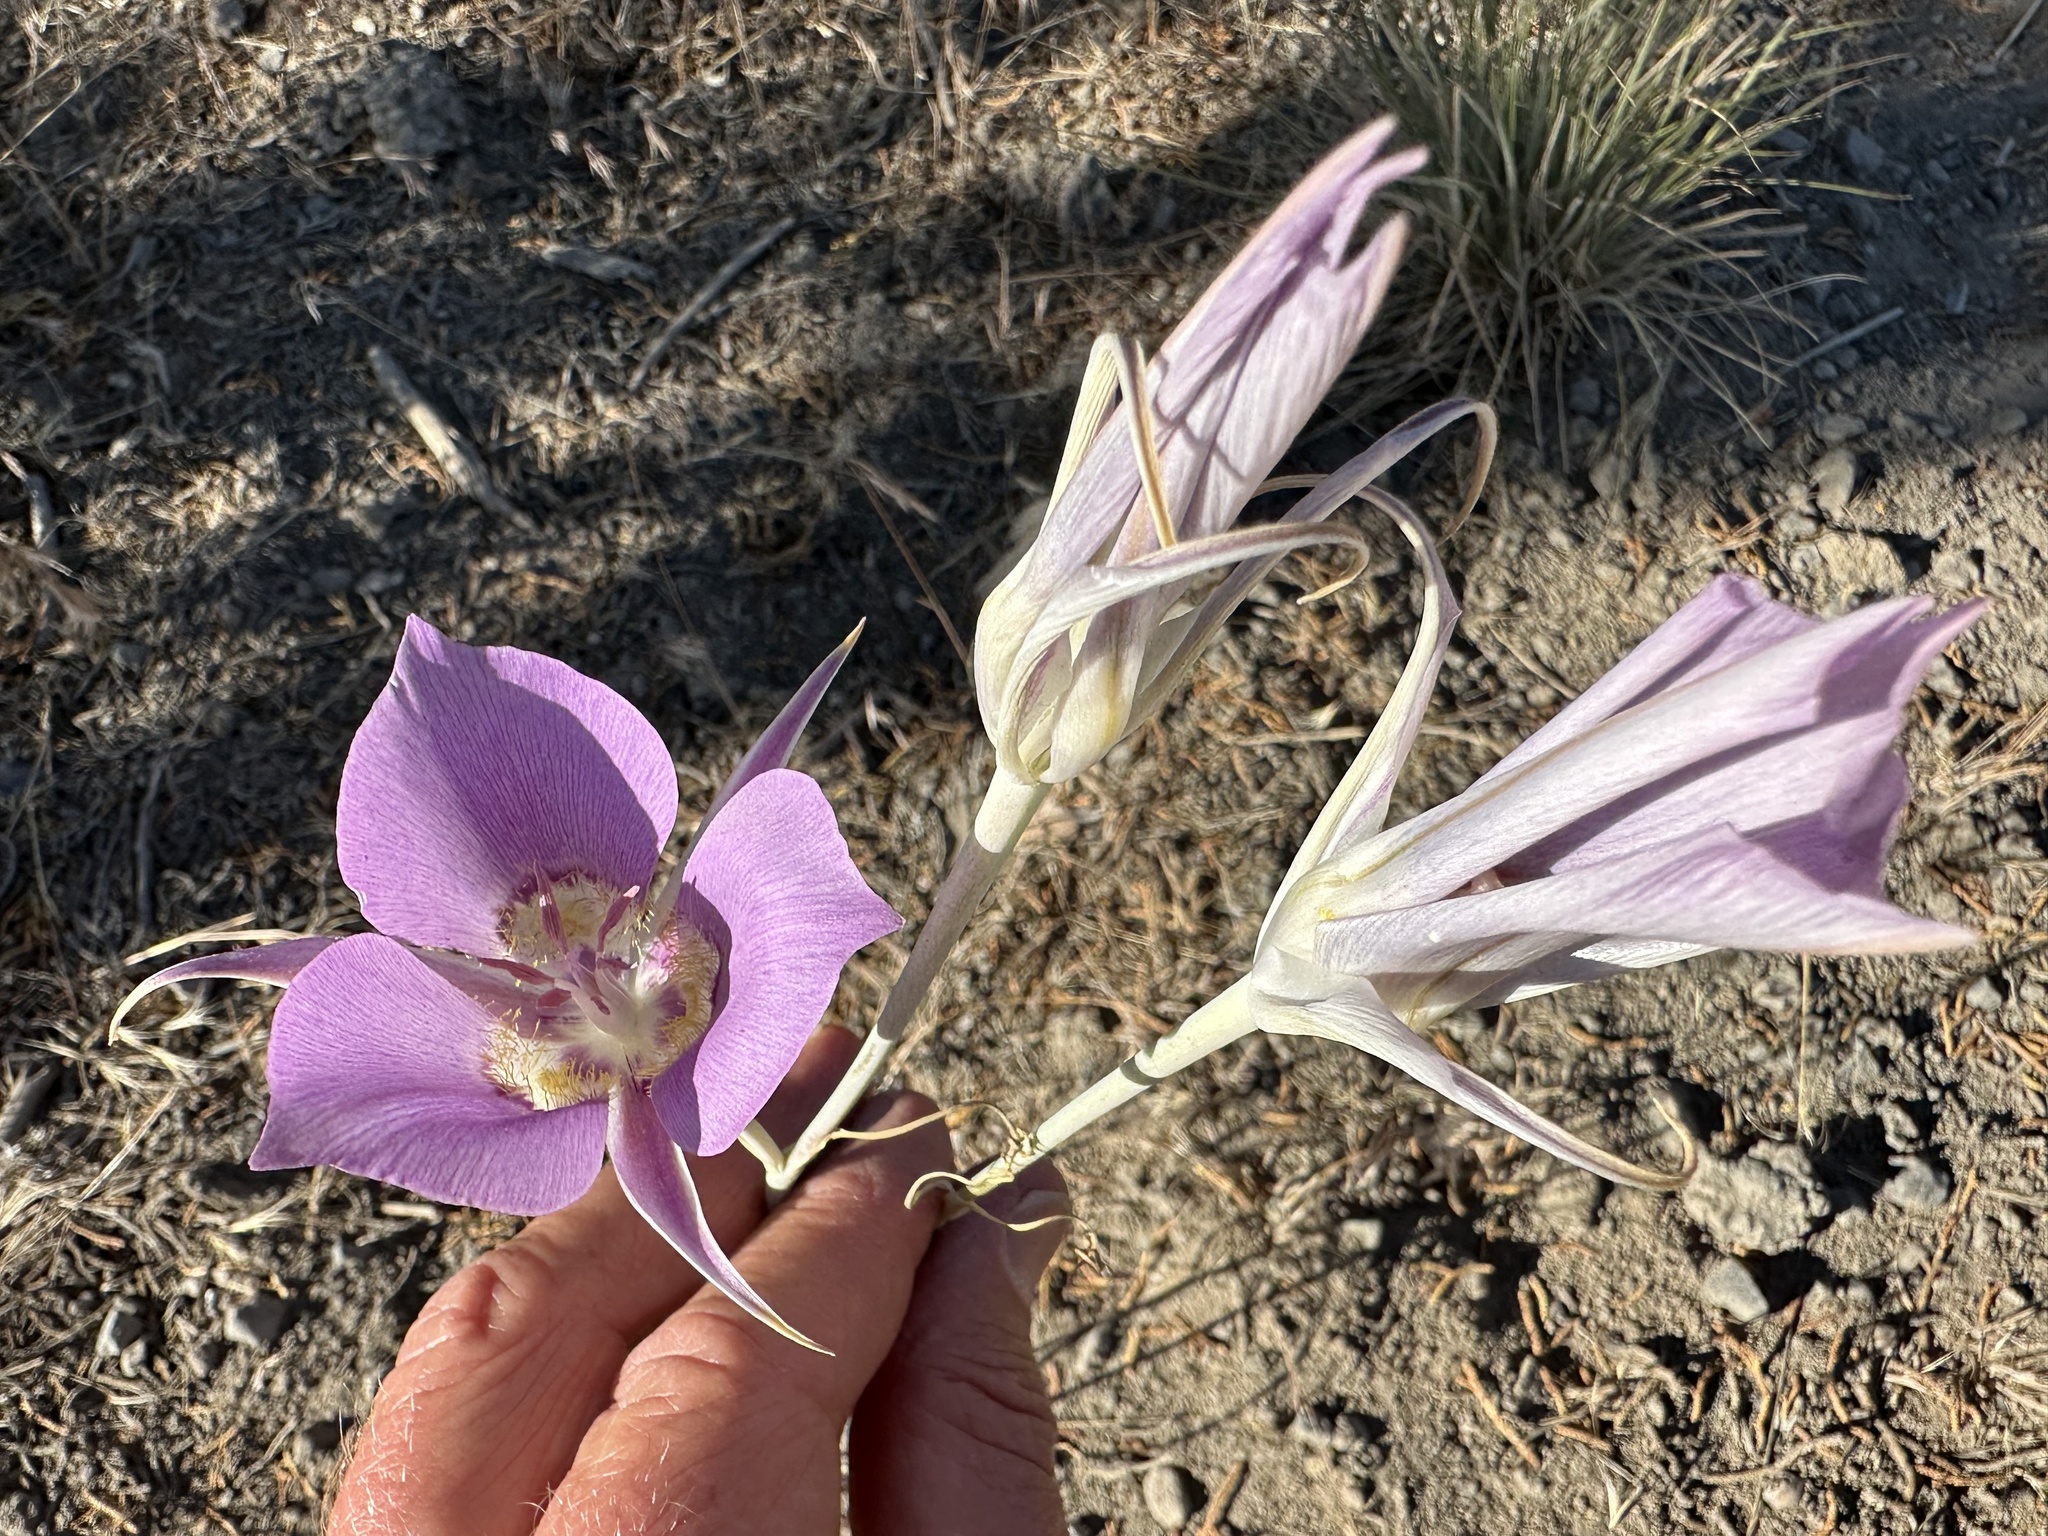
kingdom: Plantae
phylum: Tracheophyta
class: Liliopsida
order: Liliales
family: Liliaceae
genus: Calochortus
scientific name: Calochortus macrocarpus
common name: Green-band mariposa lily
